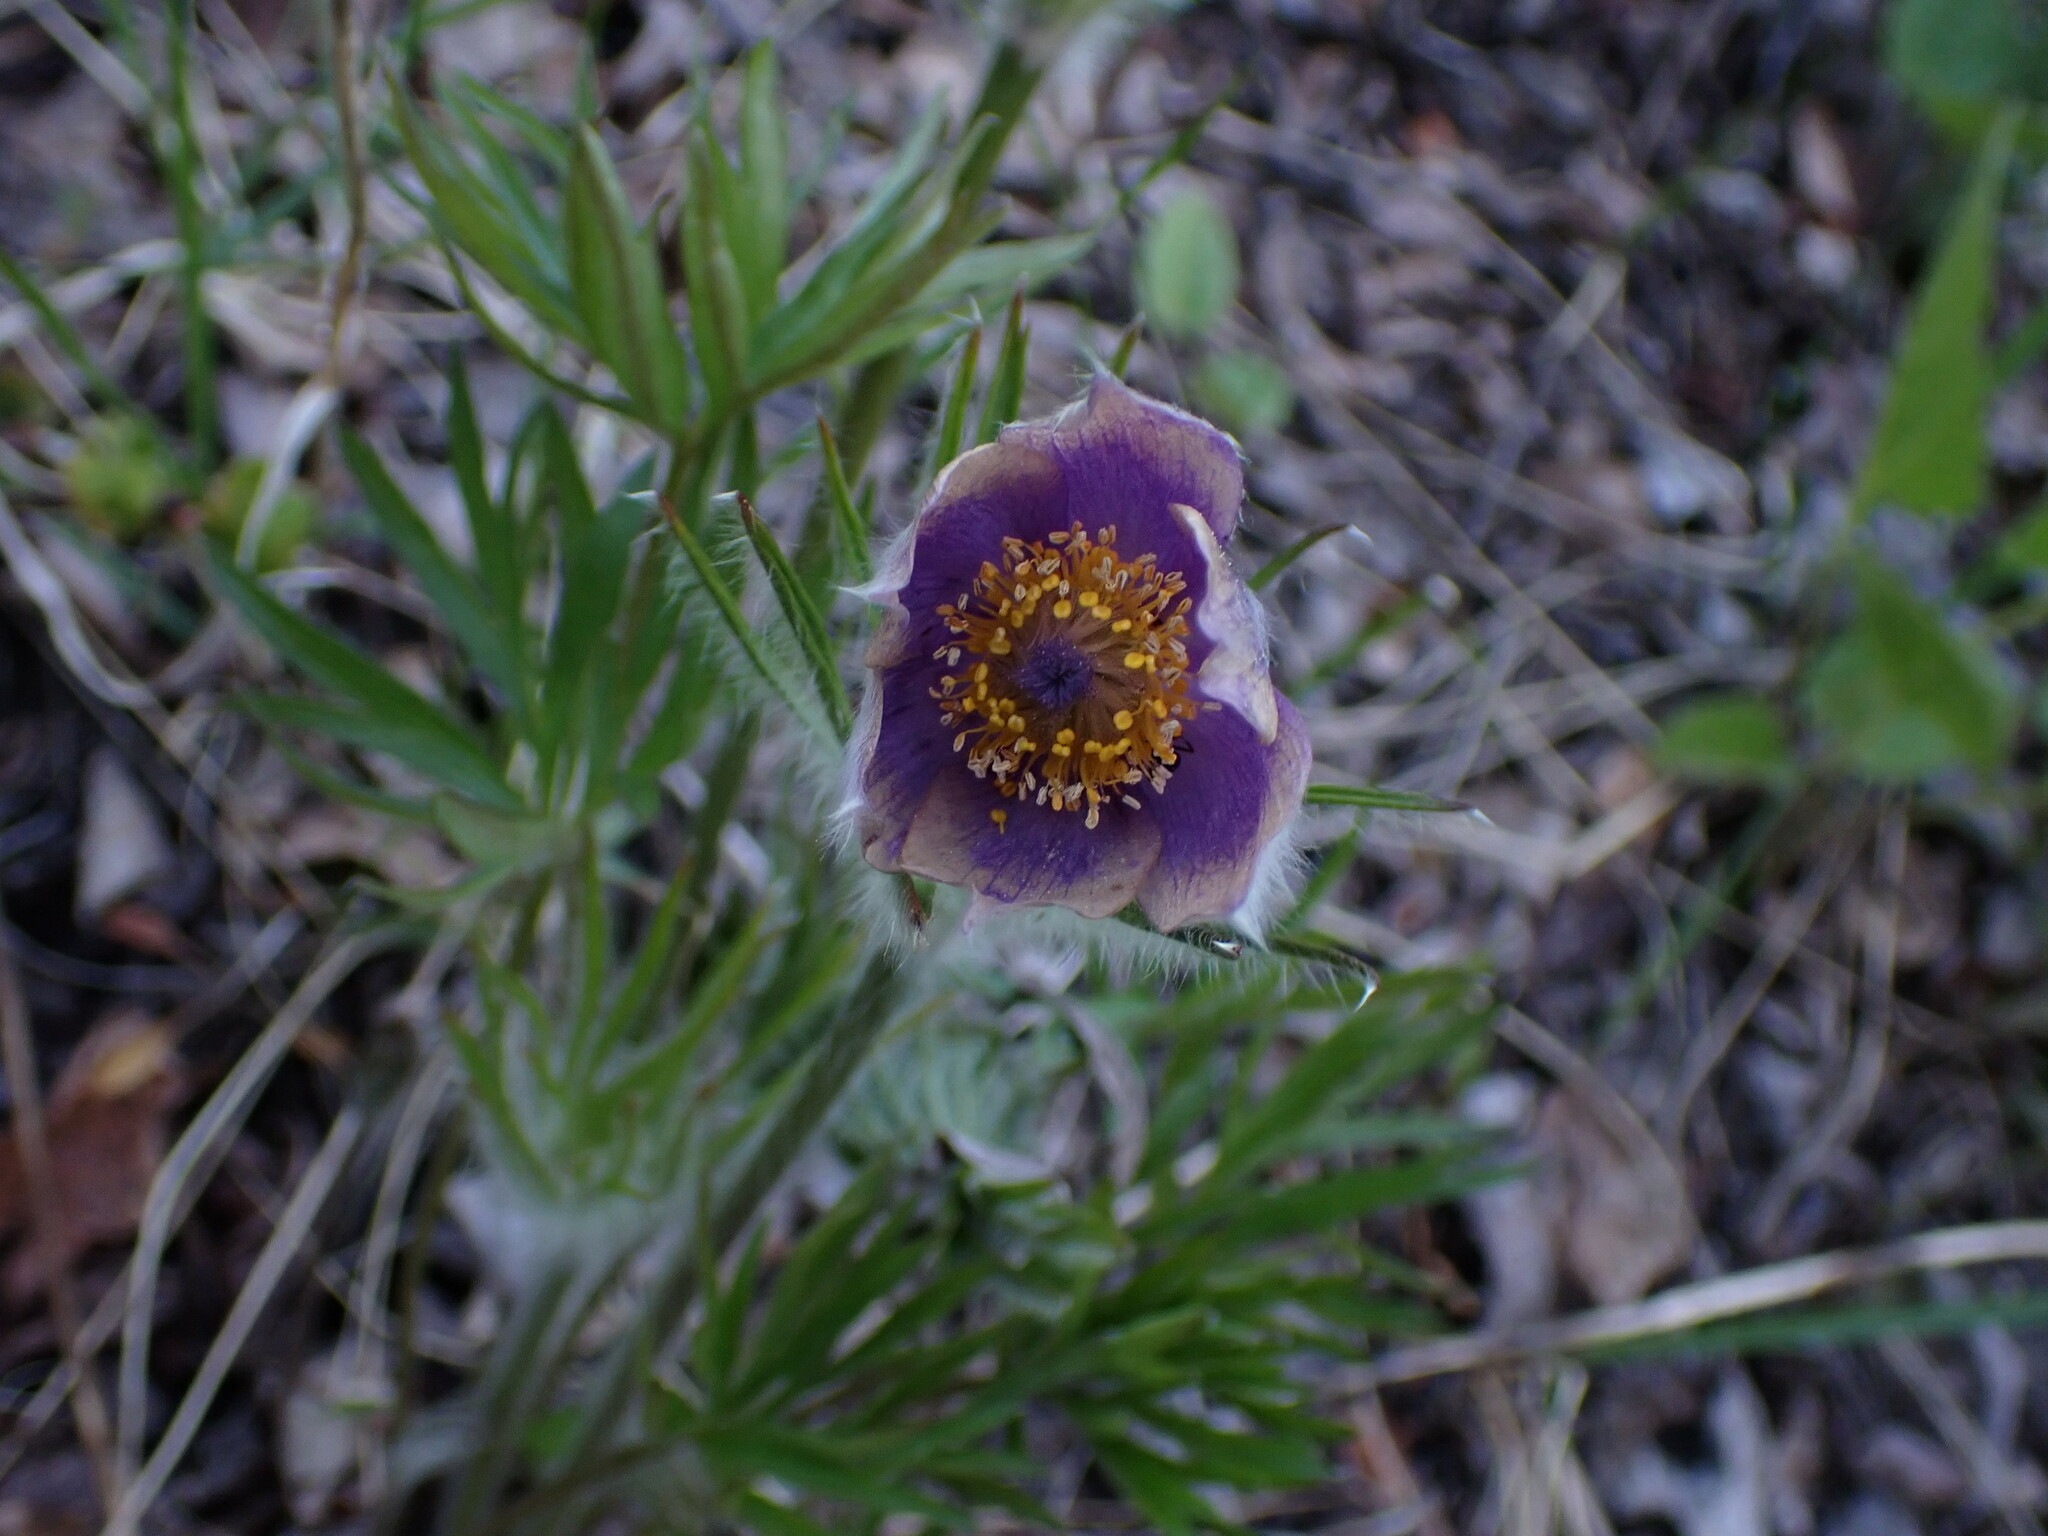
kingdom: Plantae
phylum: Tracheophyta
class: Magnoliopsida
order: Ranunculales
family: Ranunculaceae
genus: Pulsatilla
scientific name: Pulsatilla nuttalliana
